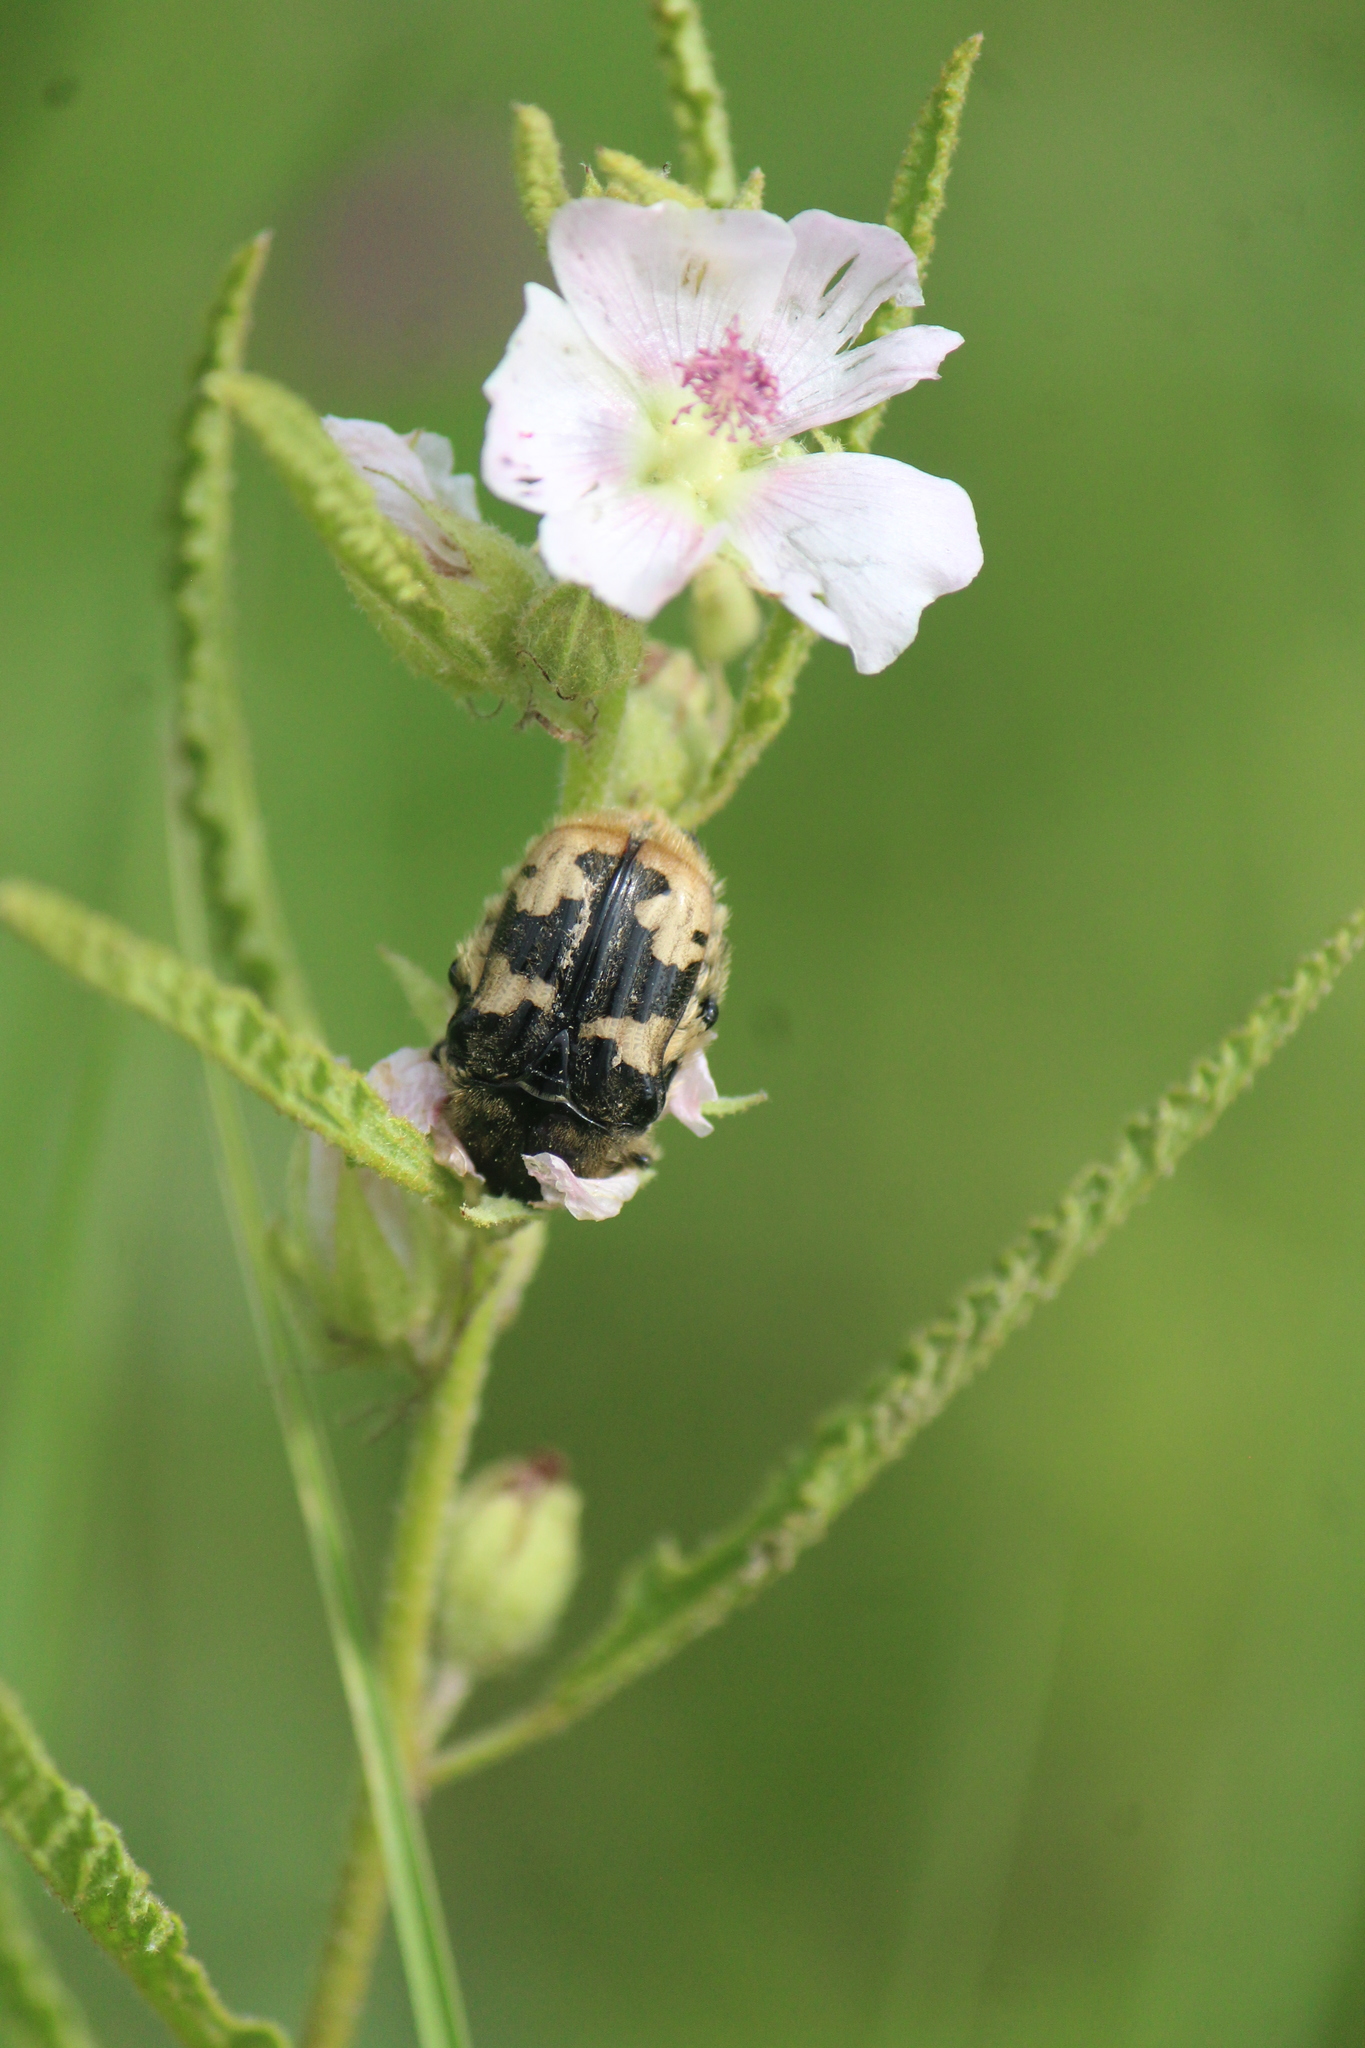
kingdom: Animalia
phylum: Arthropoda
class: Insecta
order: Coleoptera
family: Scarabaeidae
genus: Euphoria
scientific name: Euphoria basalis
